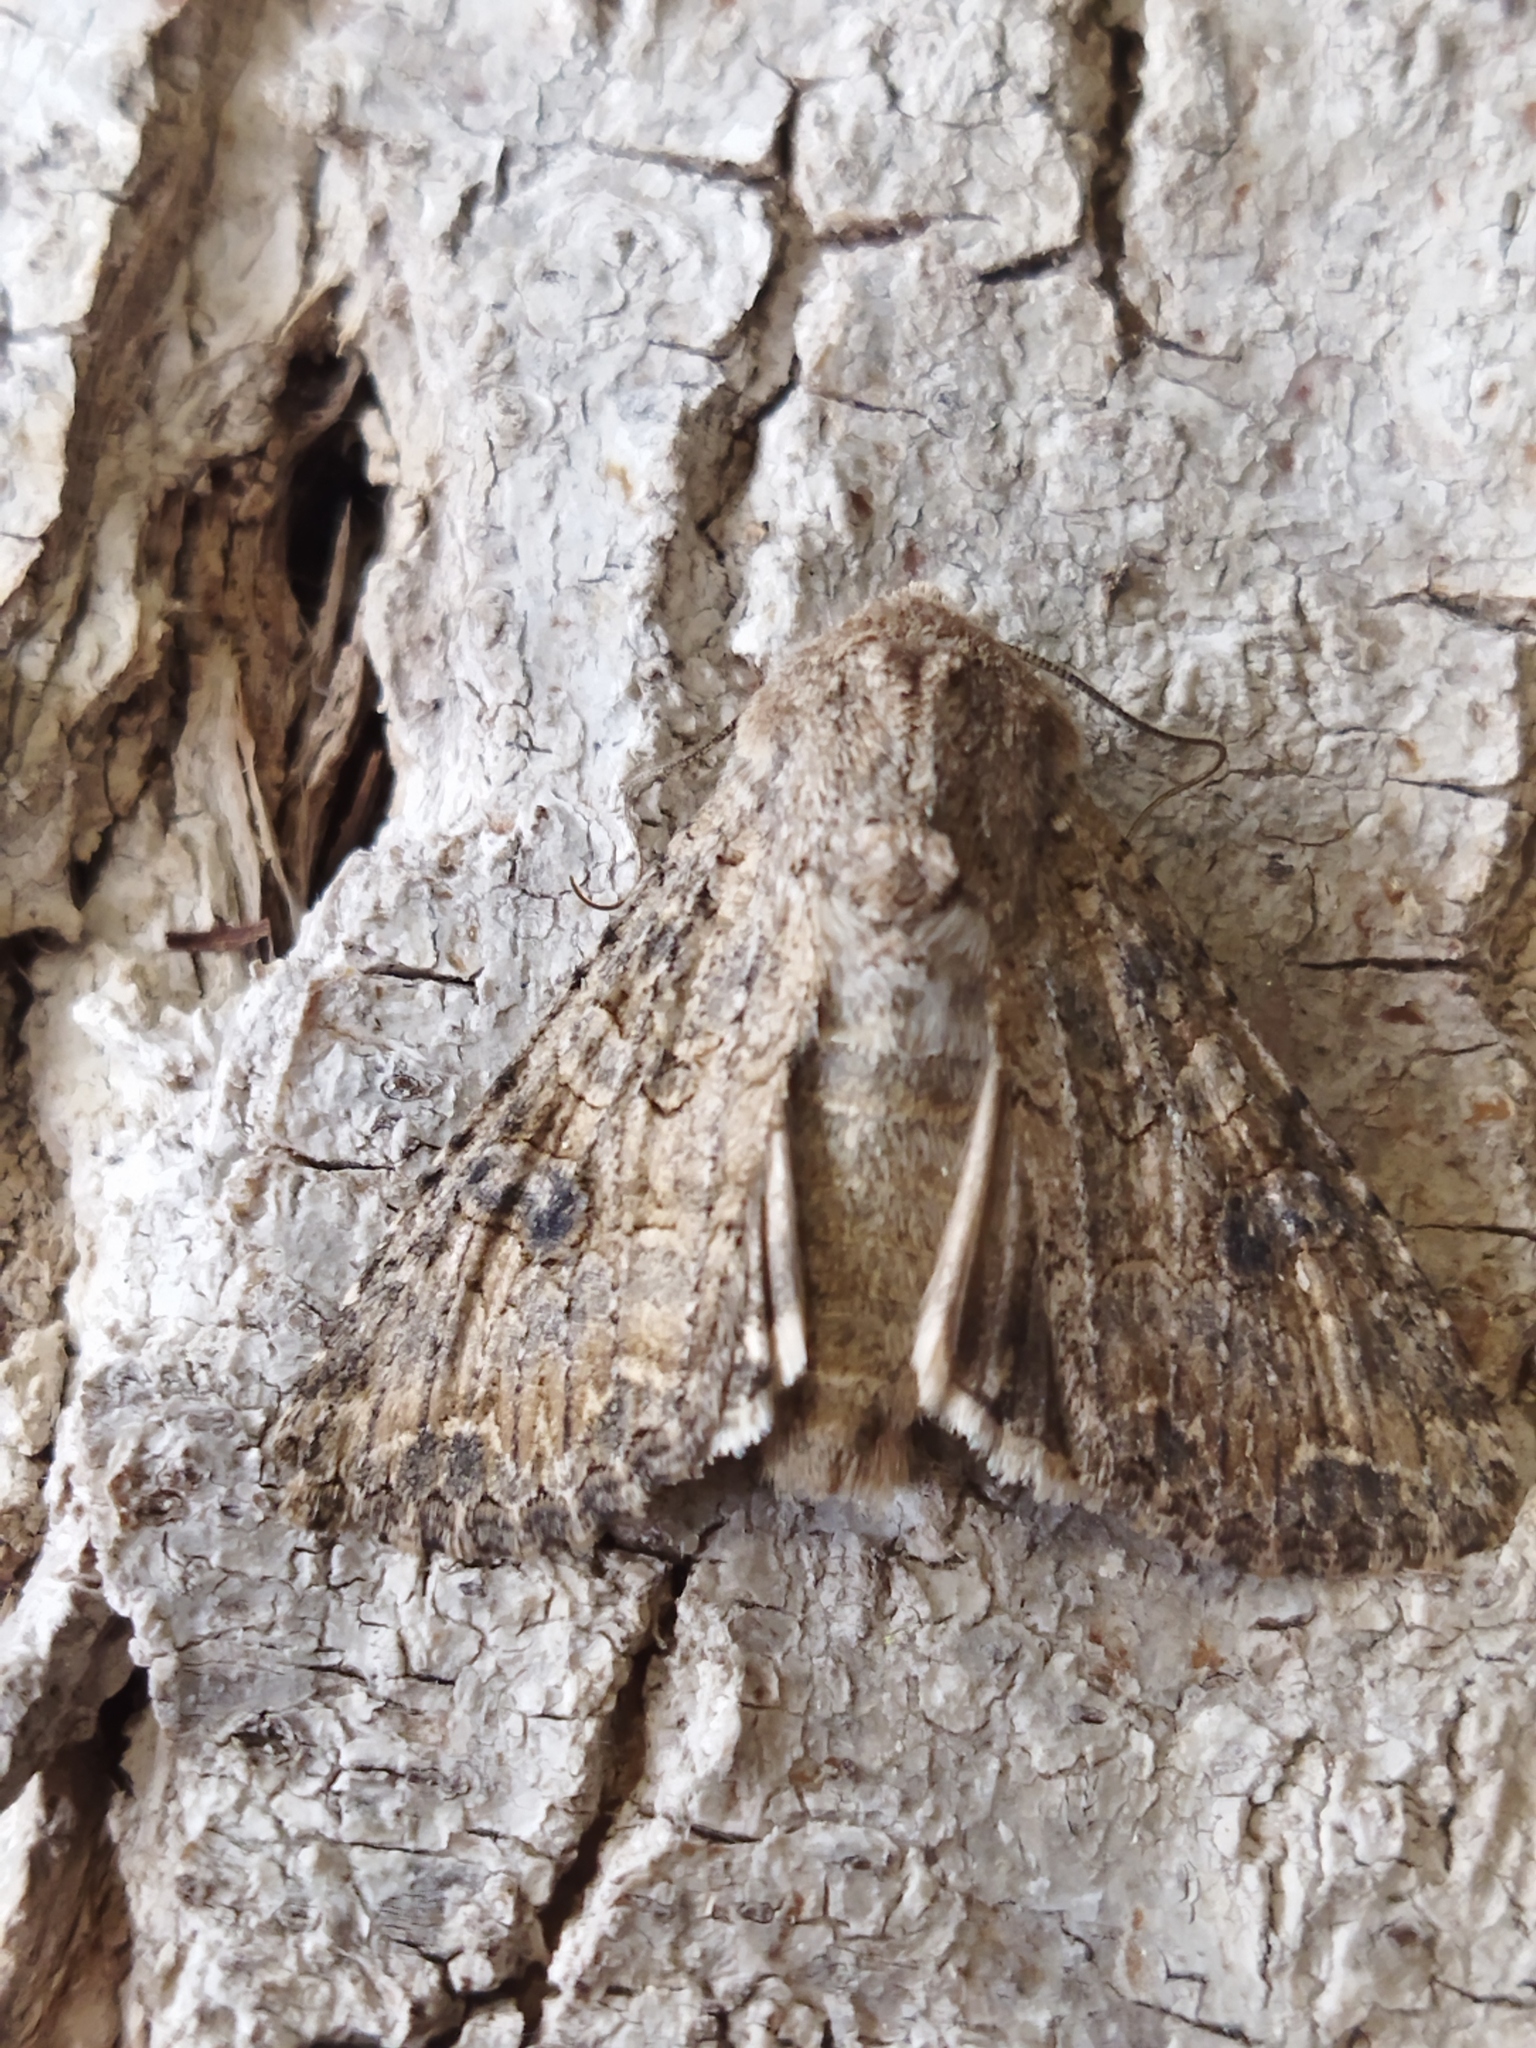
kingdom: Animalia
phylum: Arthropoda
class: Insecta
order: Lepidoptera
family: Noctuidae
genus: Anarta
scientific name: Anarta trifolii
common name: Clover cutworm moth
